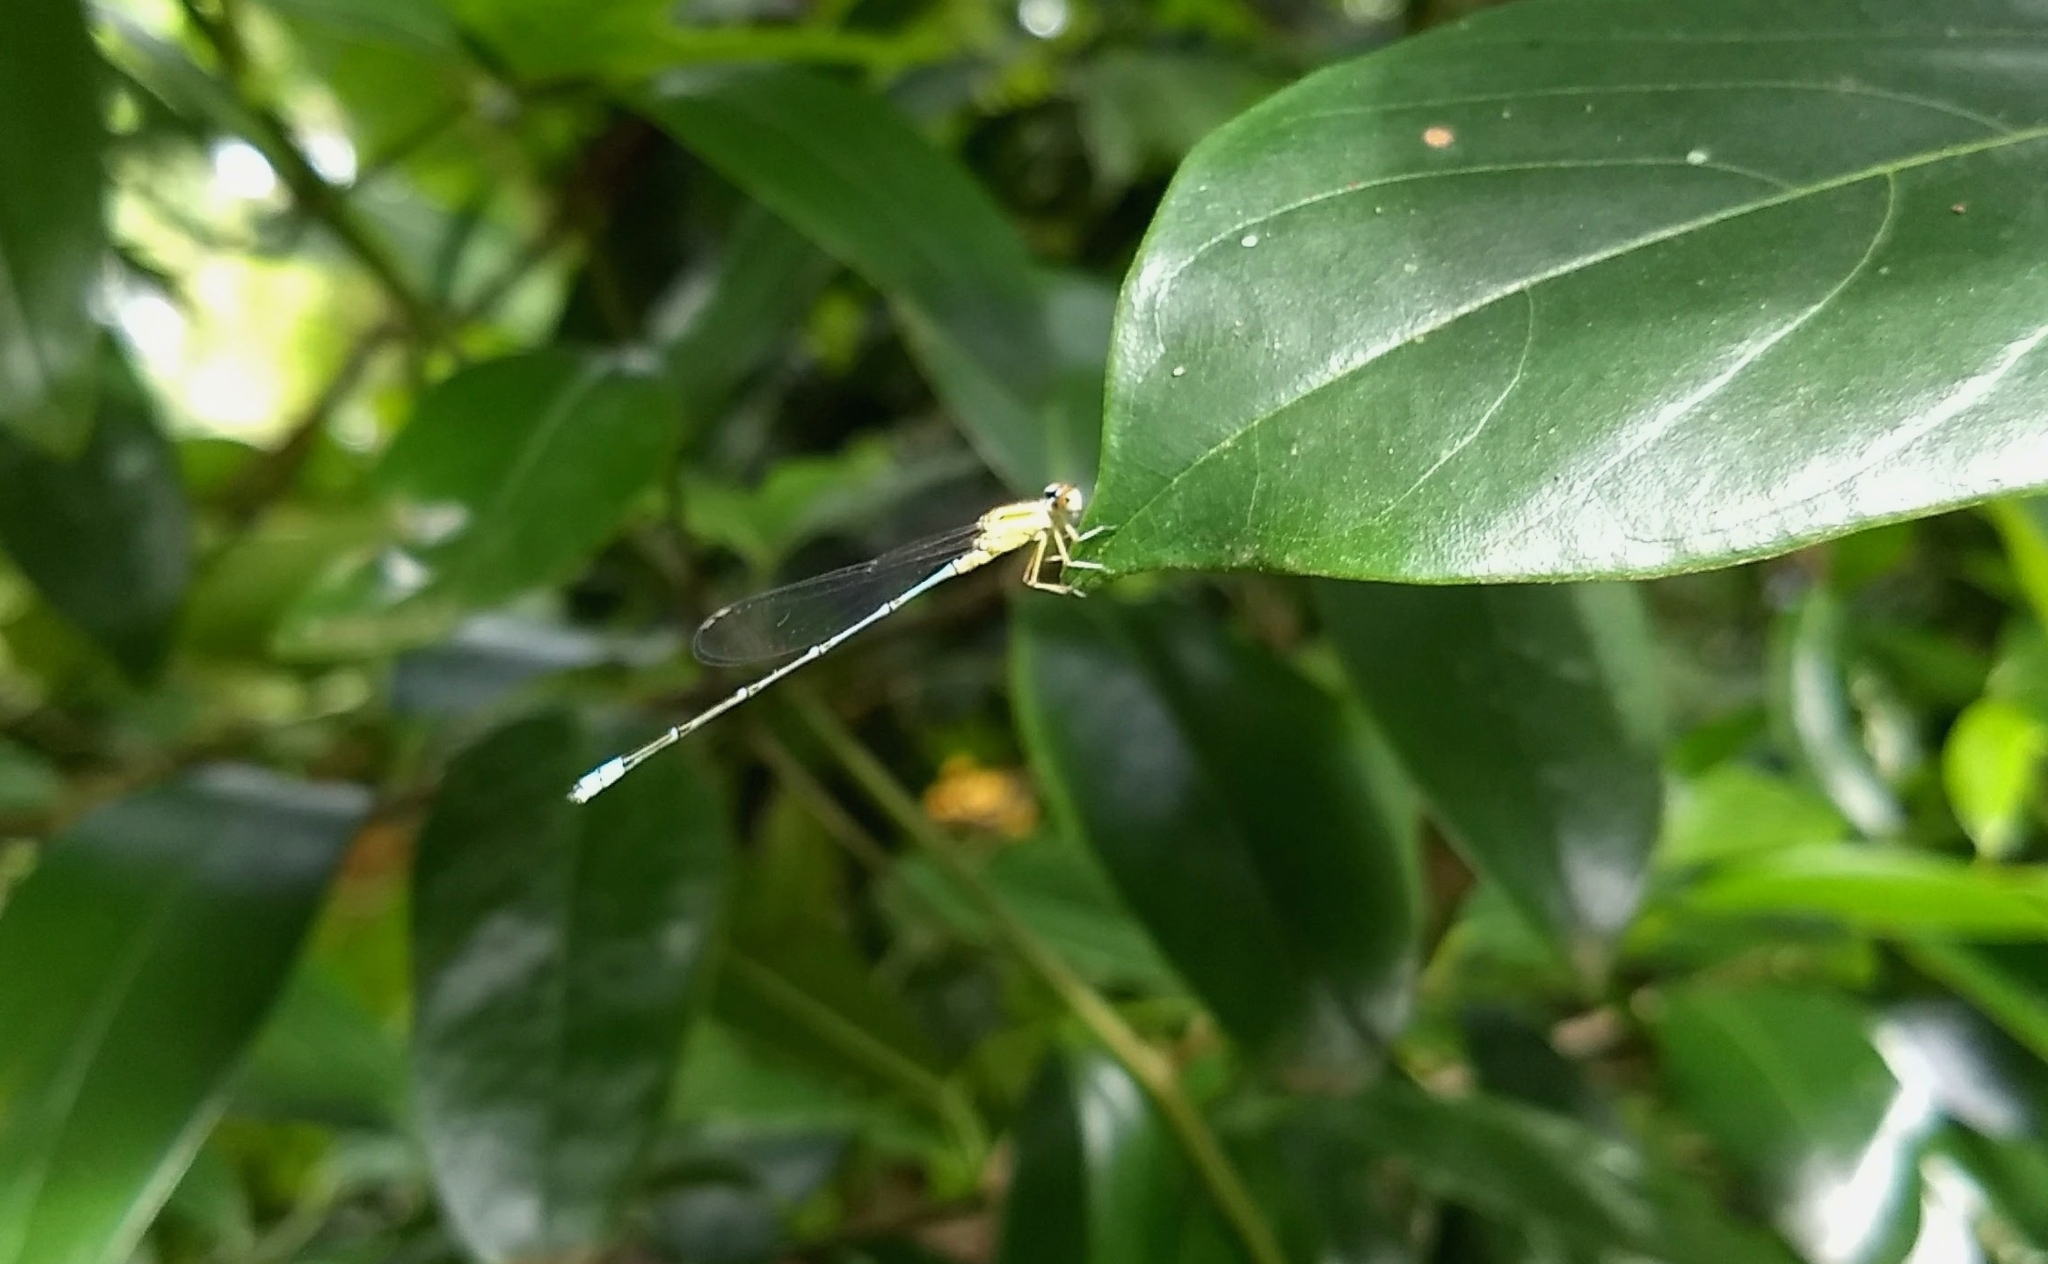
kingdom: Animalia
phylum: Arthropoda
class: Insecta
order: Odonata
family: Coenagrionidae
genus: Pseudagrion
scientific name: Pseudagrion microcephalum
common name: Blue riverdamsel
